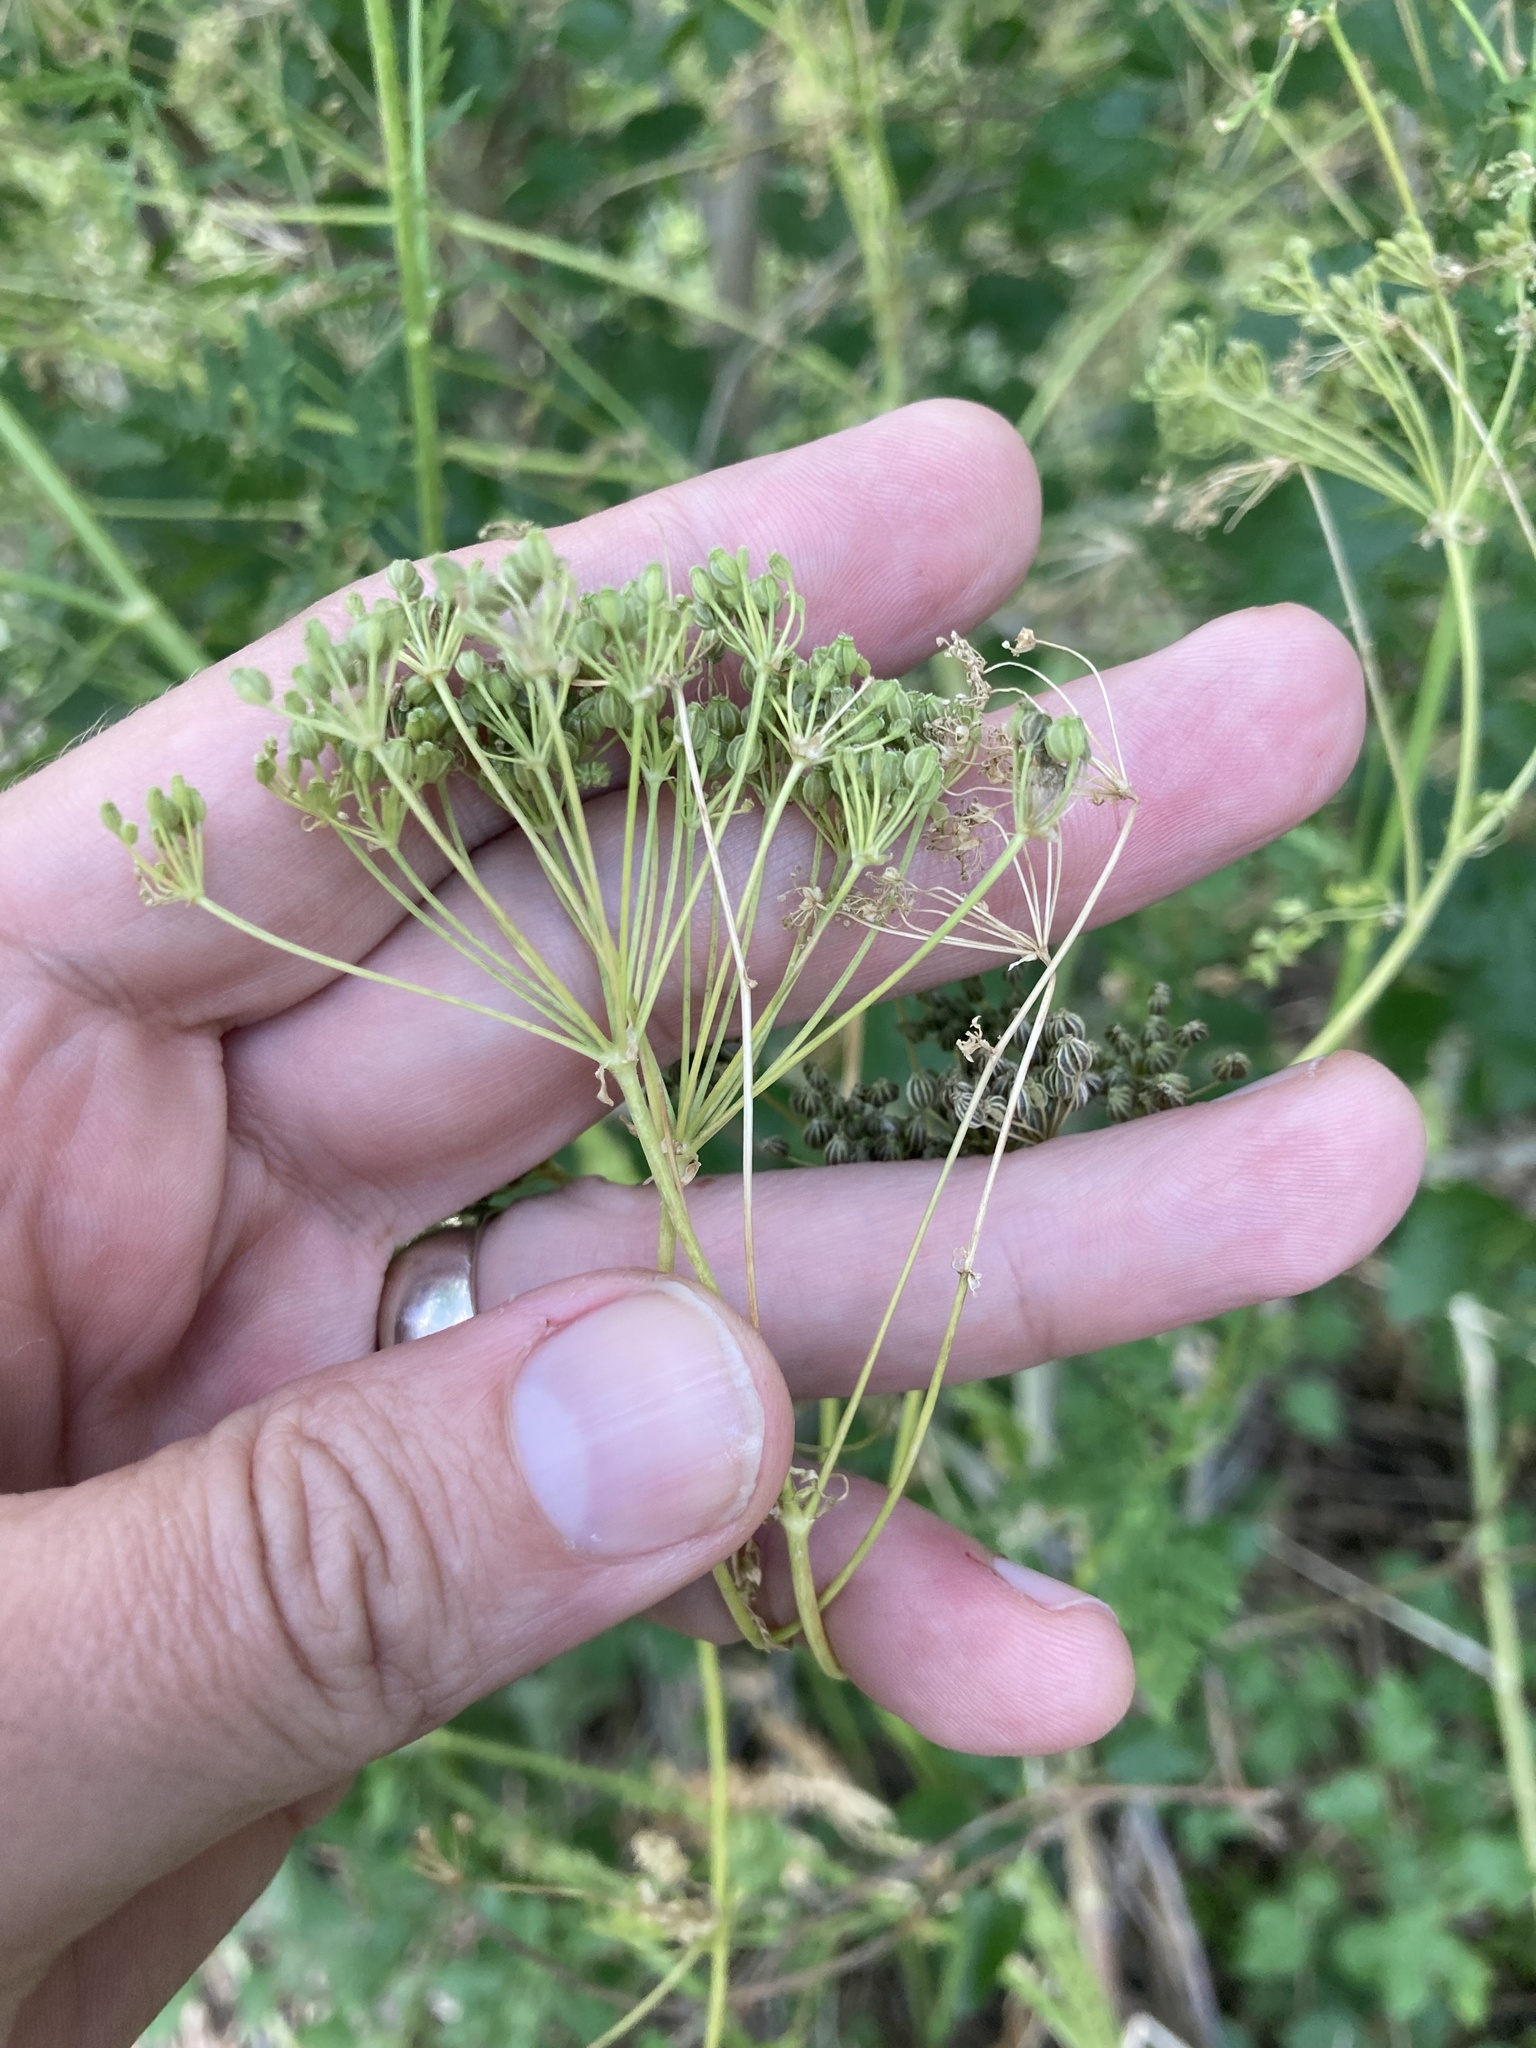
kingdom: Plantae
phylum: Tracheophyta
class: Magnoliopsida
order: Apiales
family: Apiaceae
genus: Conium
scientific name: Conium maculatum
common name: Hemlock
